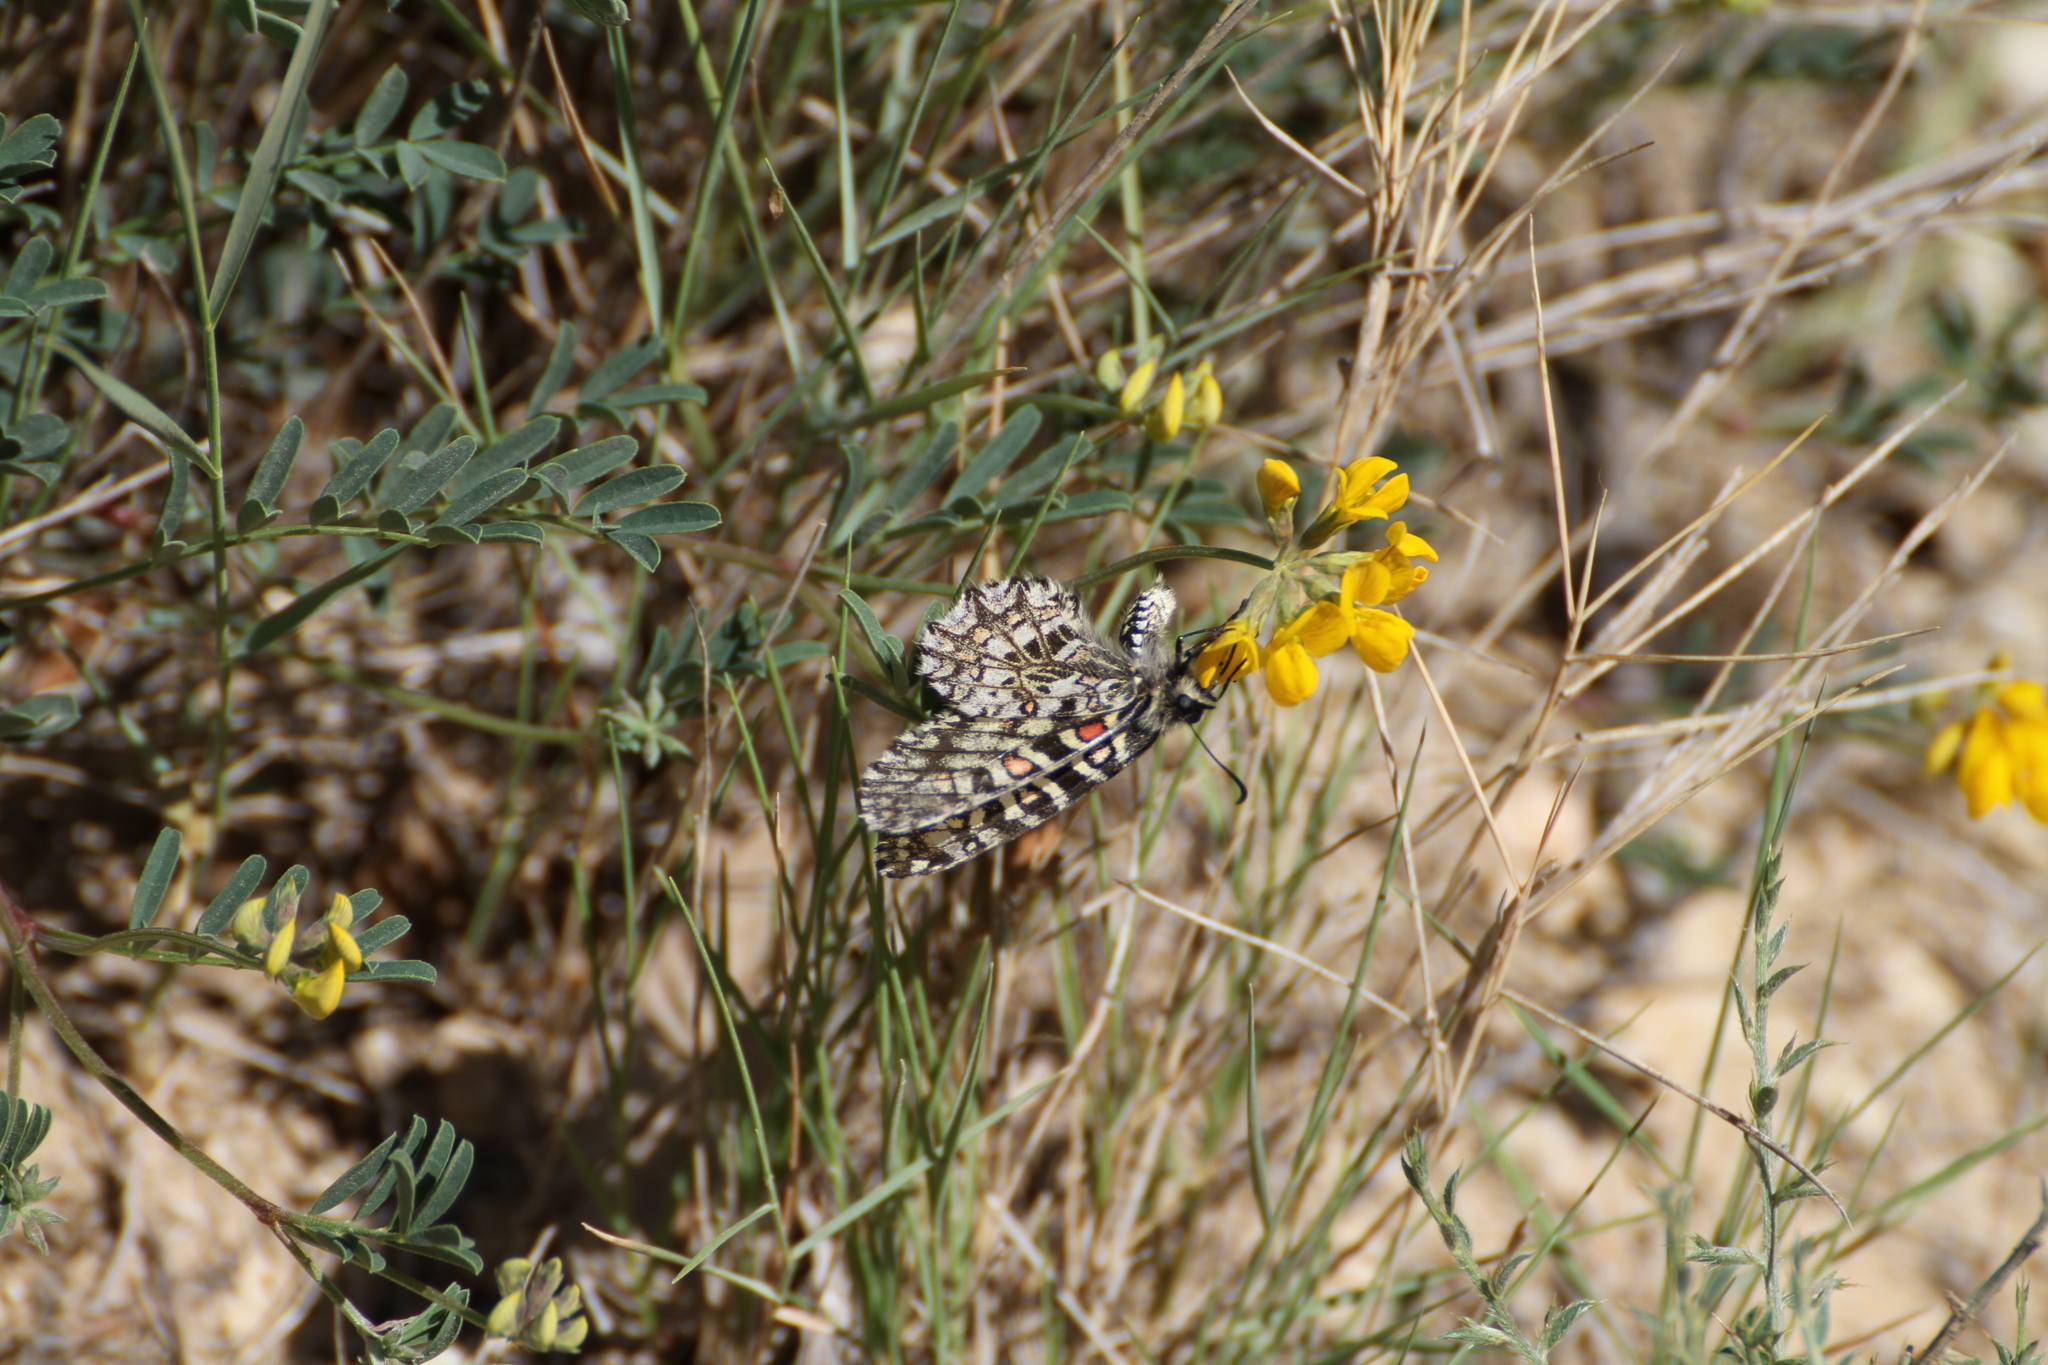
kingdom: Animalia
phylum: Arthropoda
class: Insecta
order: Lepidoptera
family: Papilionidae
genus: Zerynthia
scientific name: Zerynthia rumina
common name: Spanish festoon
